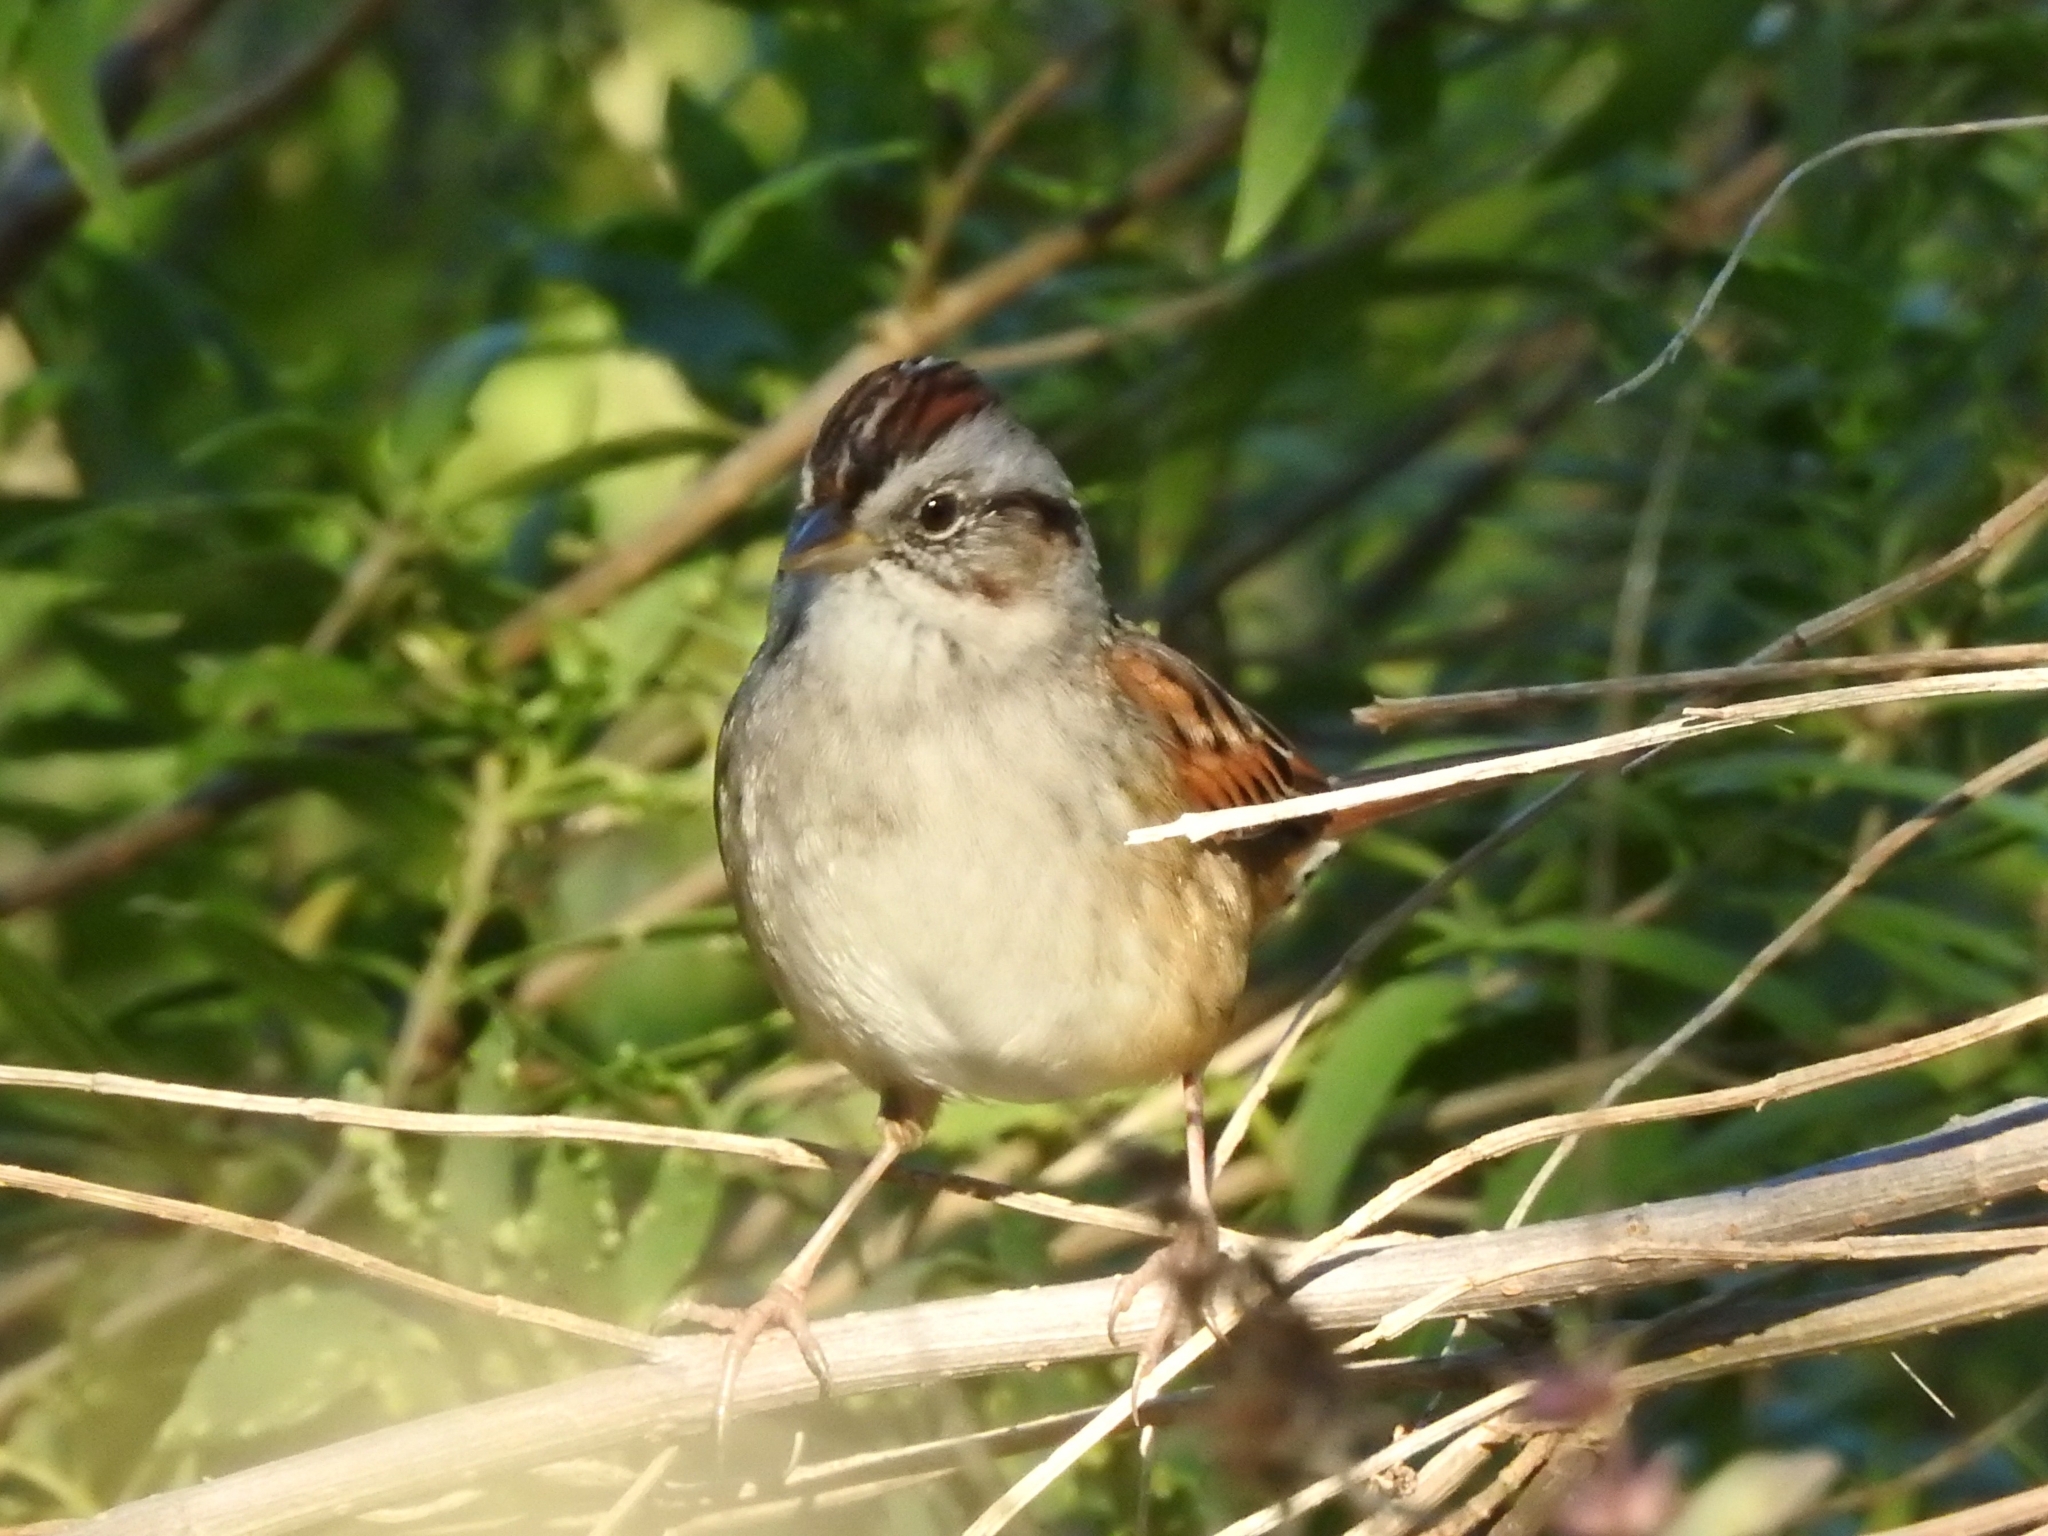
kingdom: Animalia
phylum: Chordata
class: Aves
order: Passeriformes
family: Passerellidae
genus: Melospiza
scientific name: Melospiza georgiana
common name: Swamp sparrow
